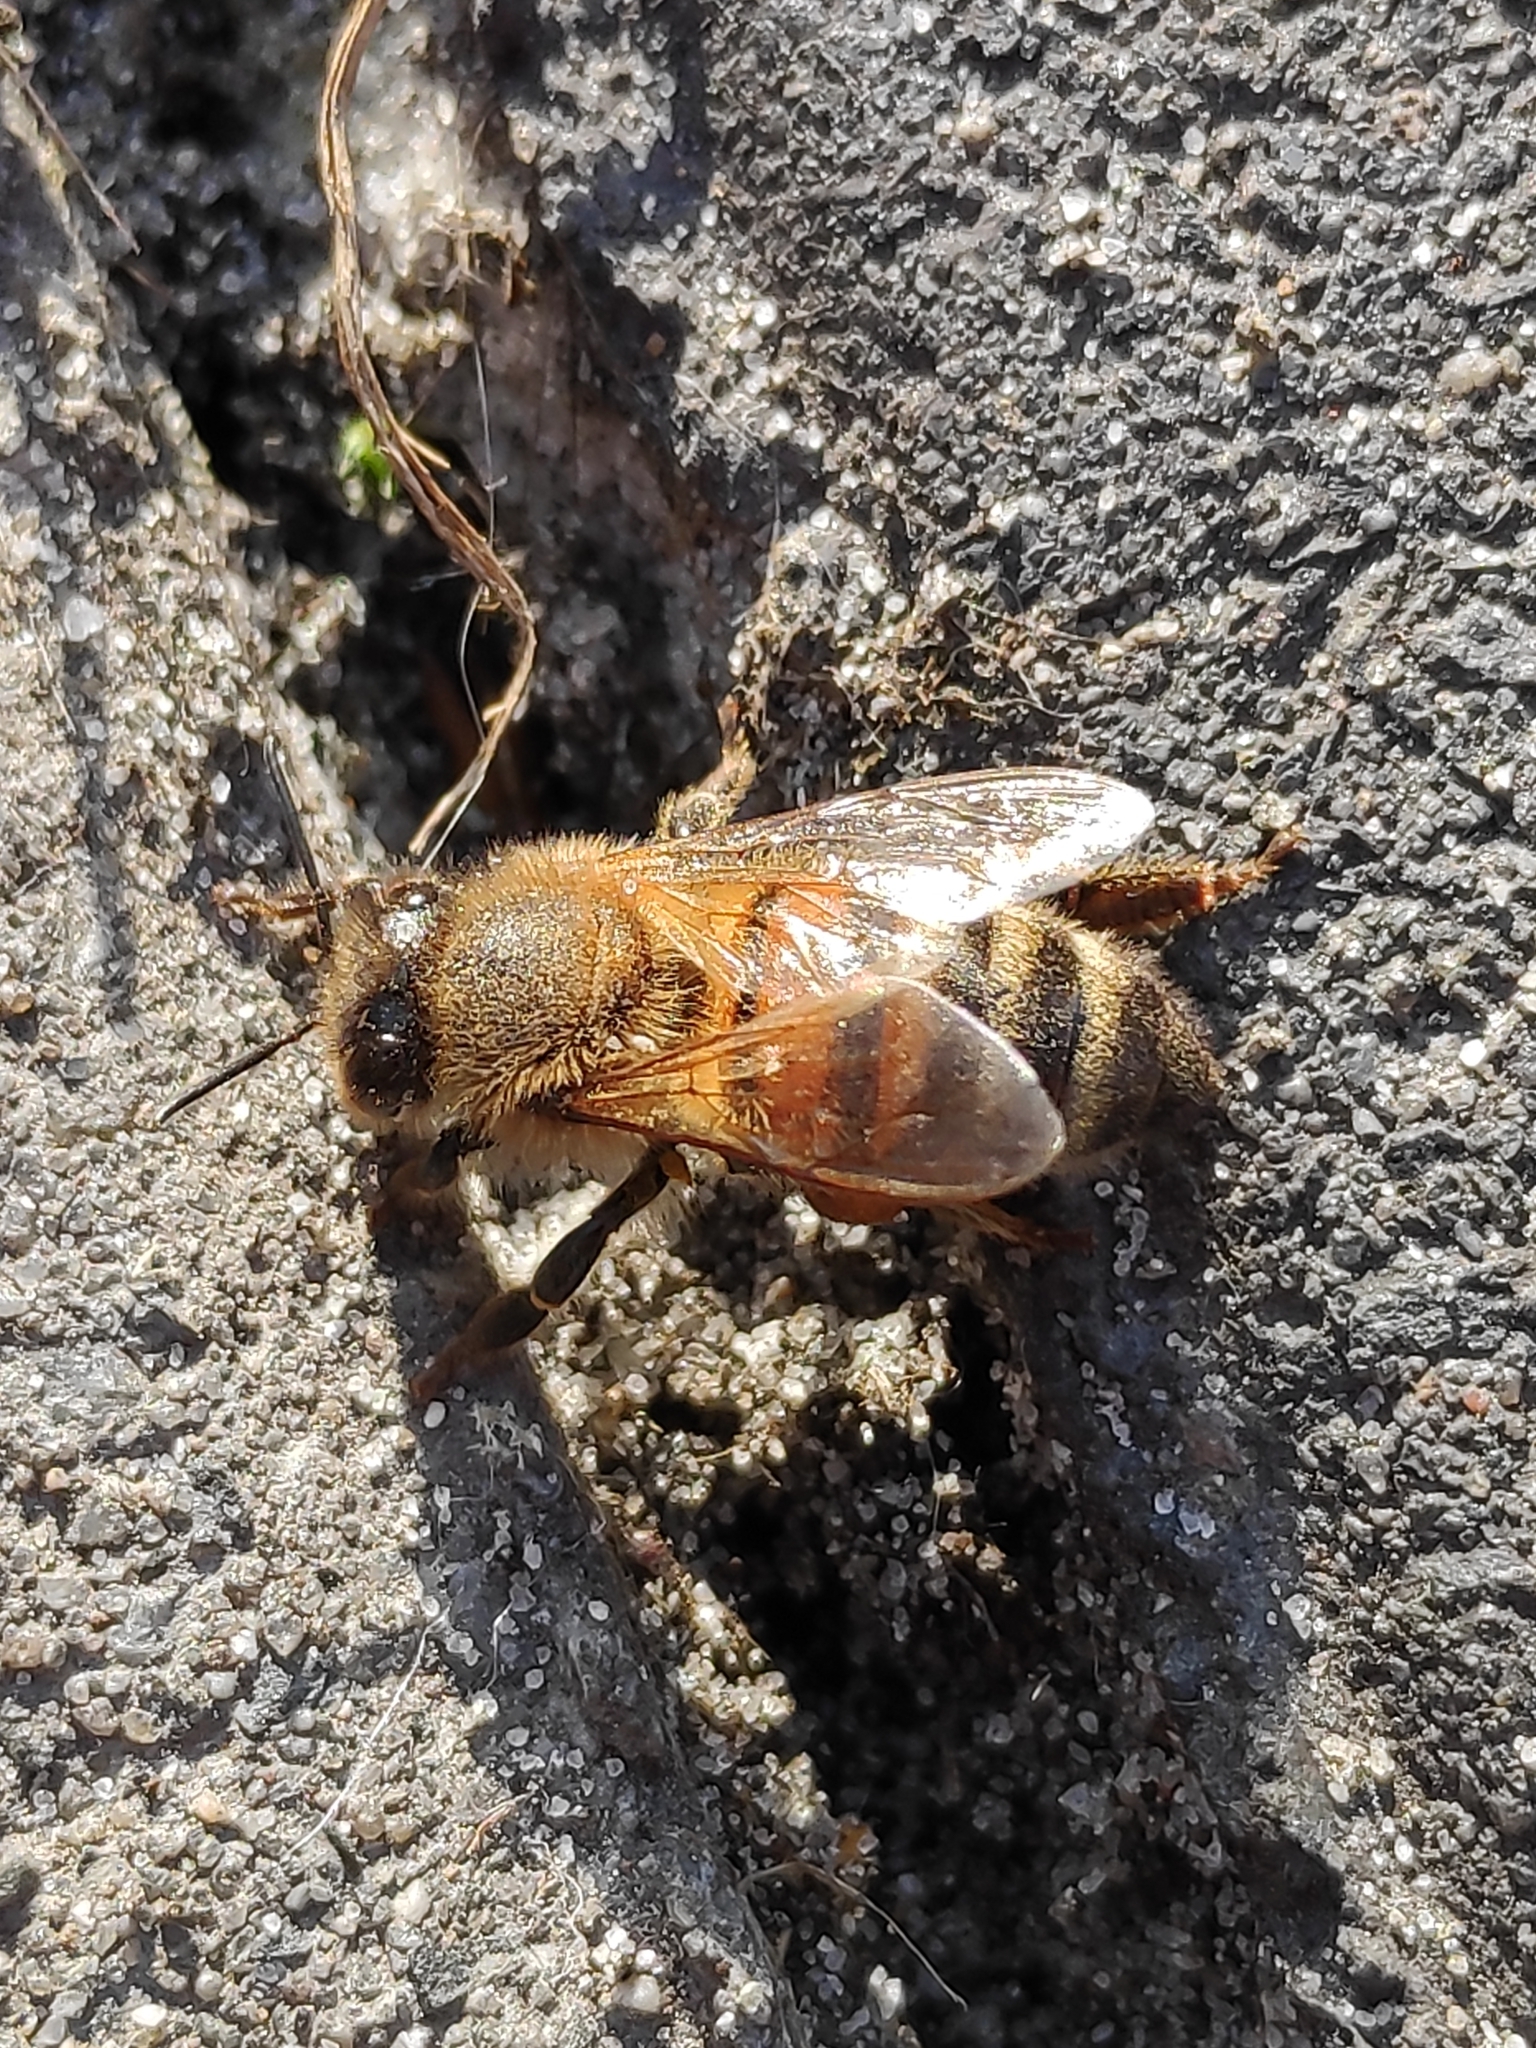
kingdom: Animalia
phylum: Arthropoda
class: Insecta
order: Hymenoptera
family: Apidae
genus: Apis
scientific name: Apis mellifera
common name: Honey bee
